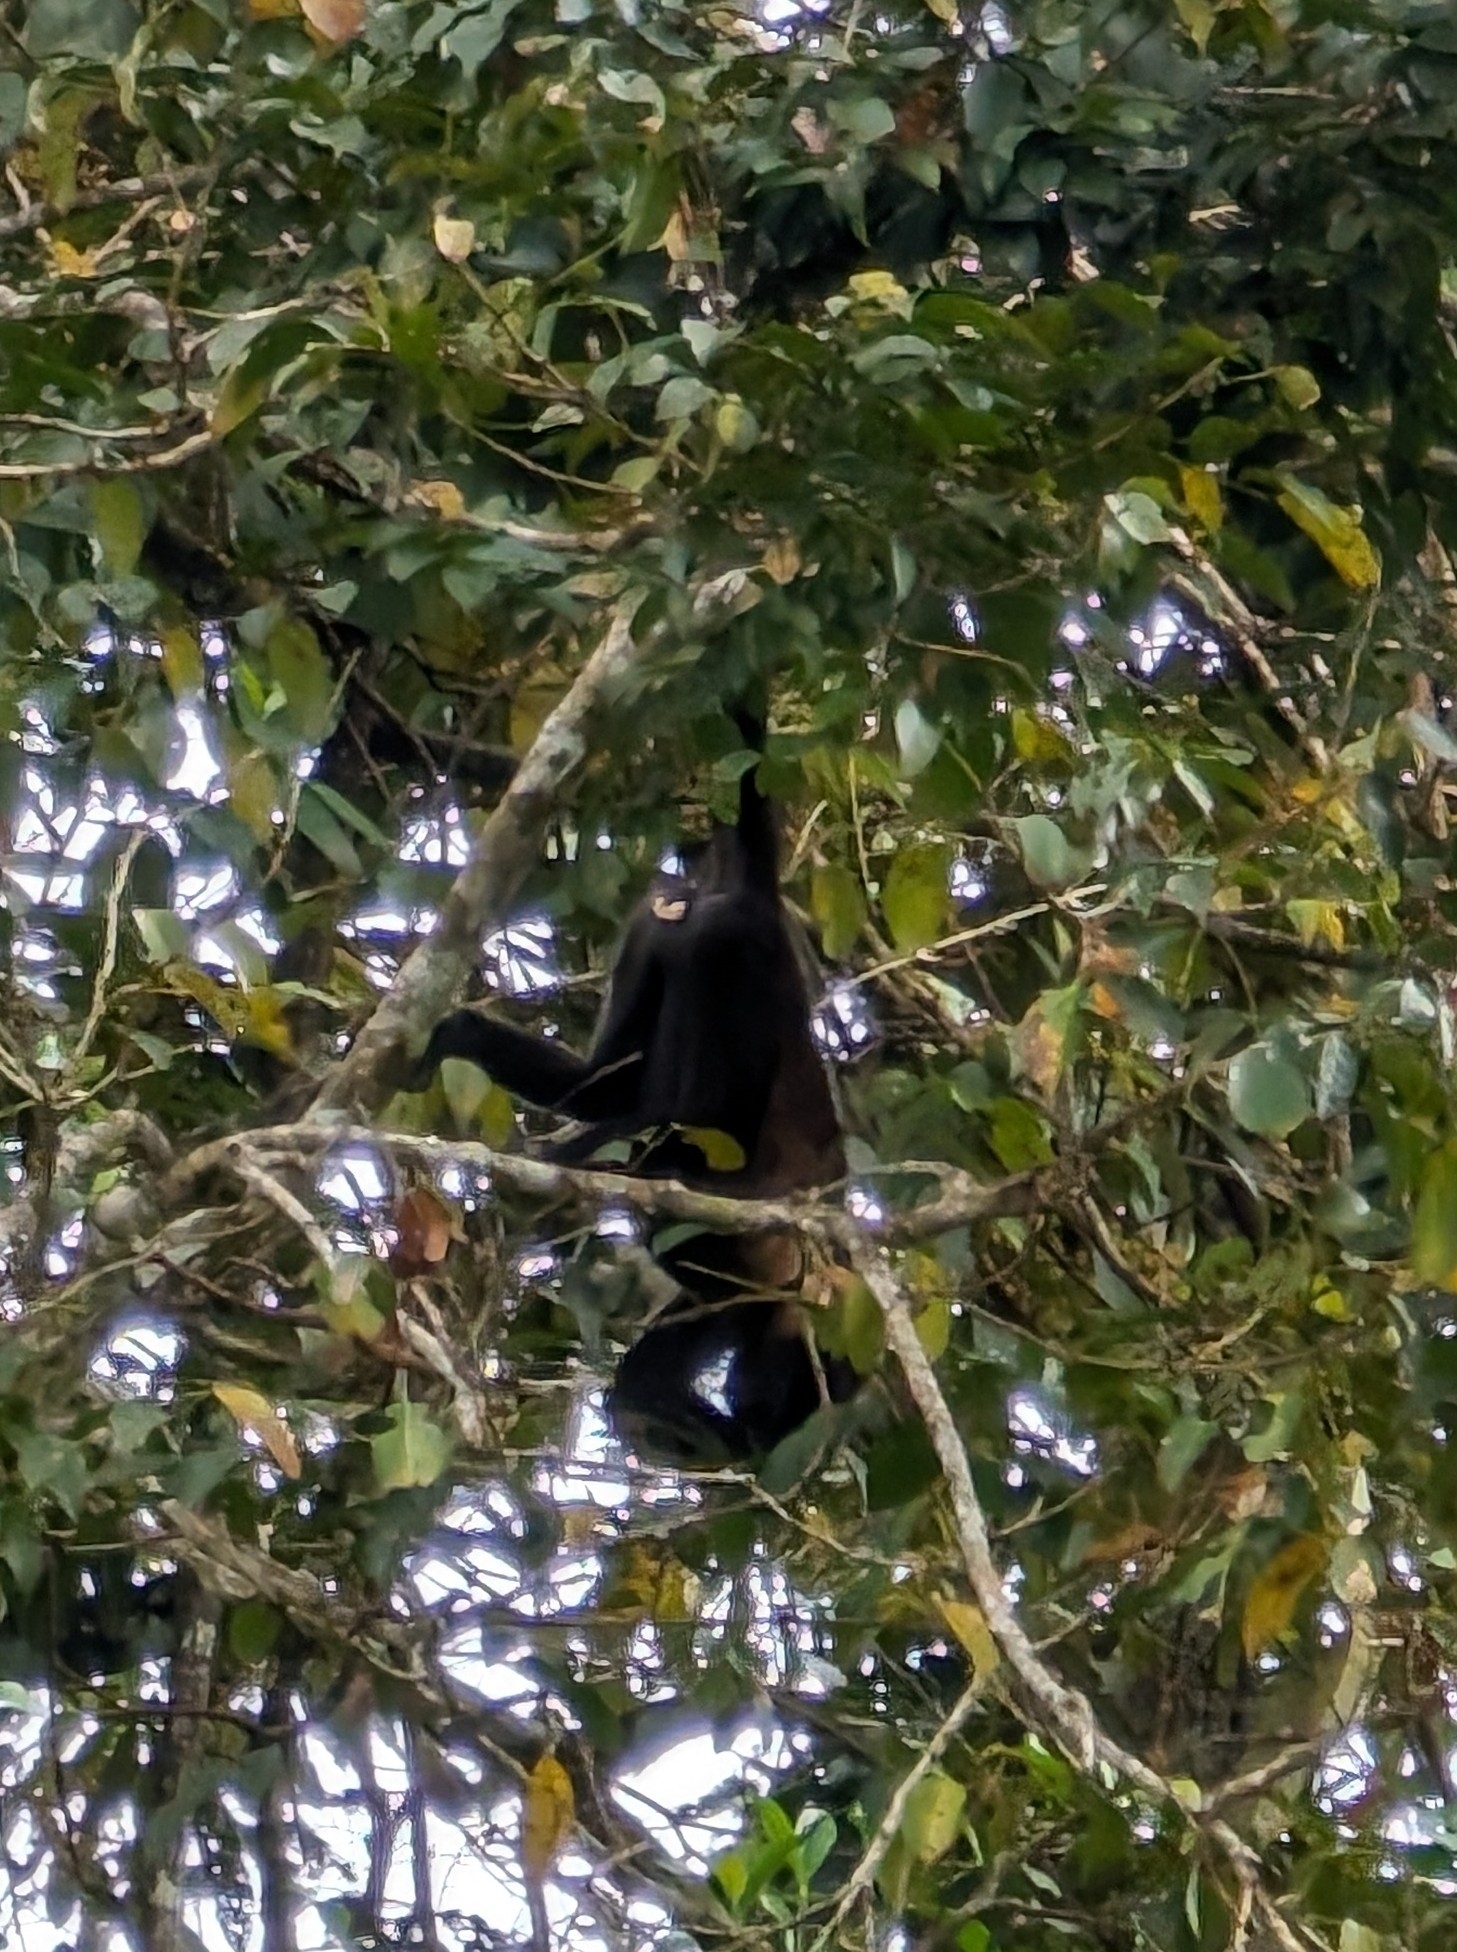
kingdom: Animalia
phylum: Chordata
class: Mammalia
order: Primates
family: Atelidae
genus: Alouatta
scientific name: Alouatta palliata
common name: Mantled howler
